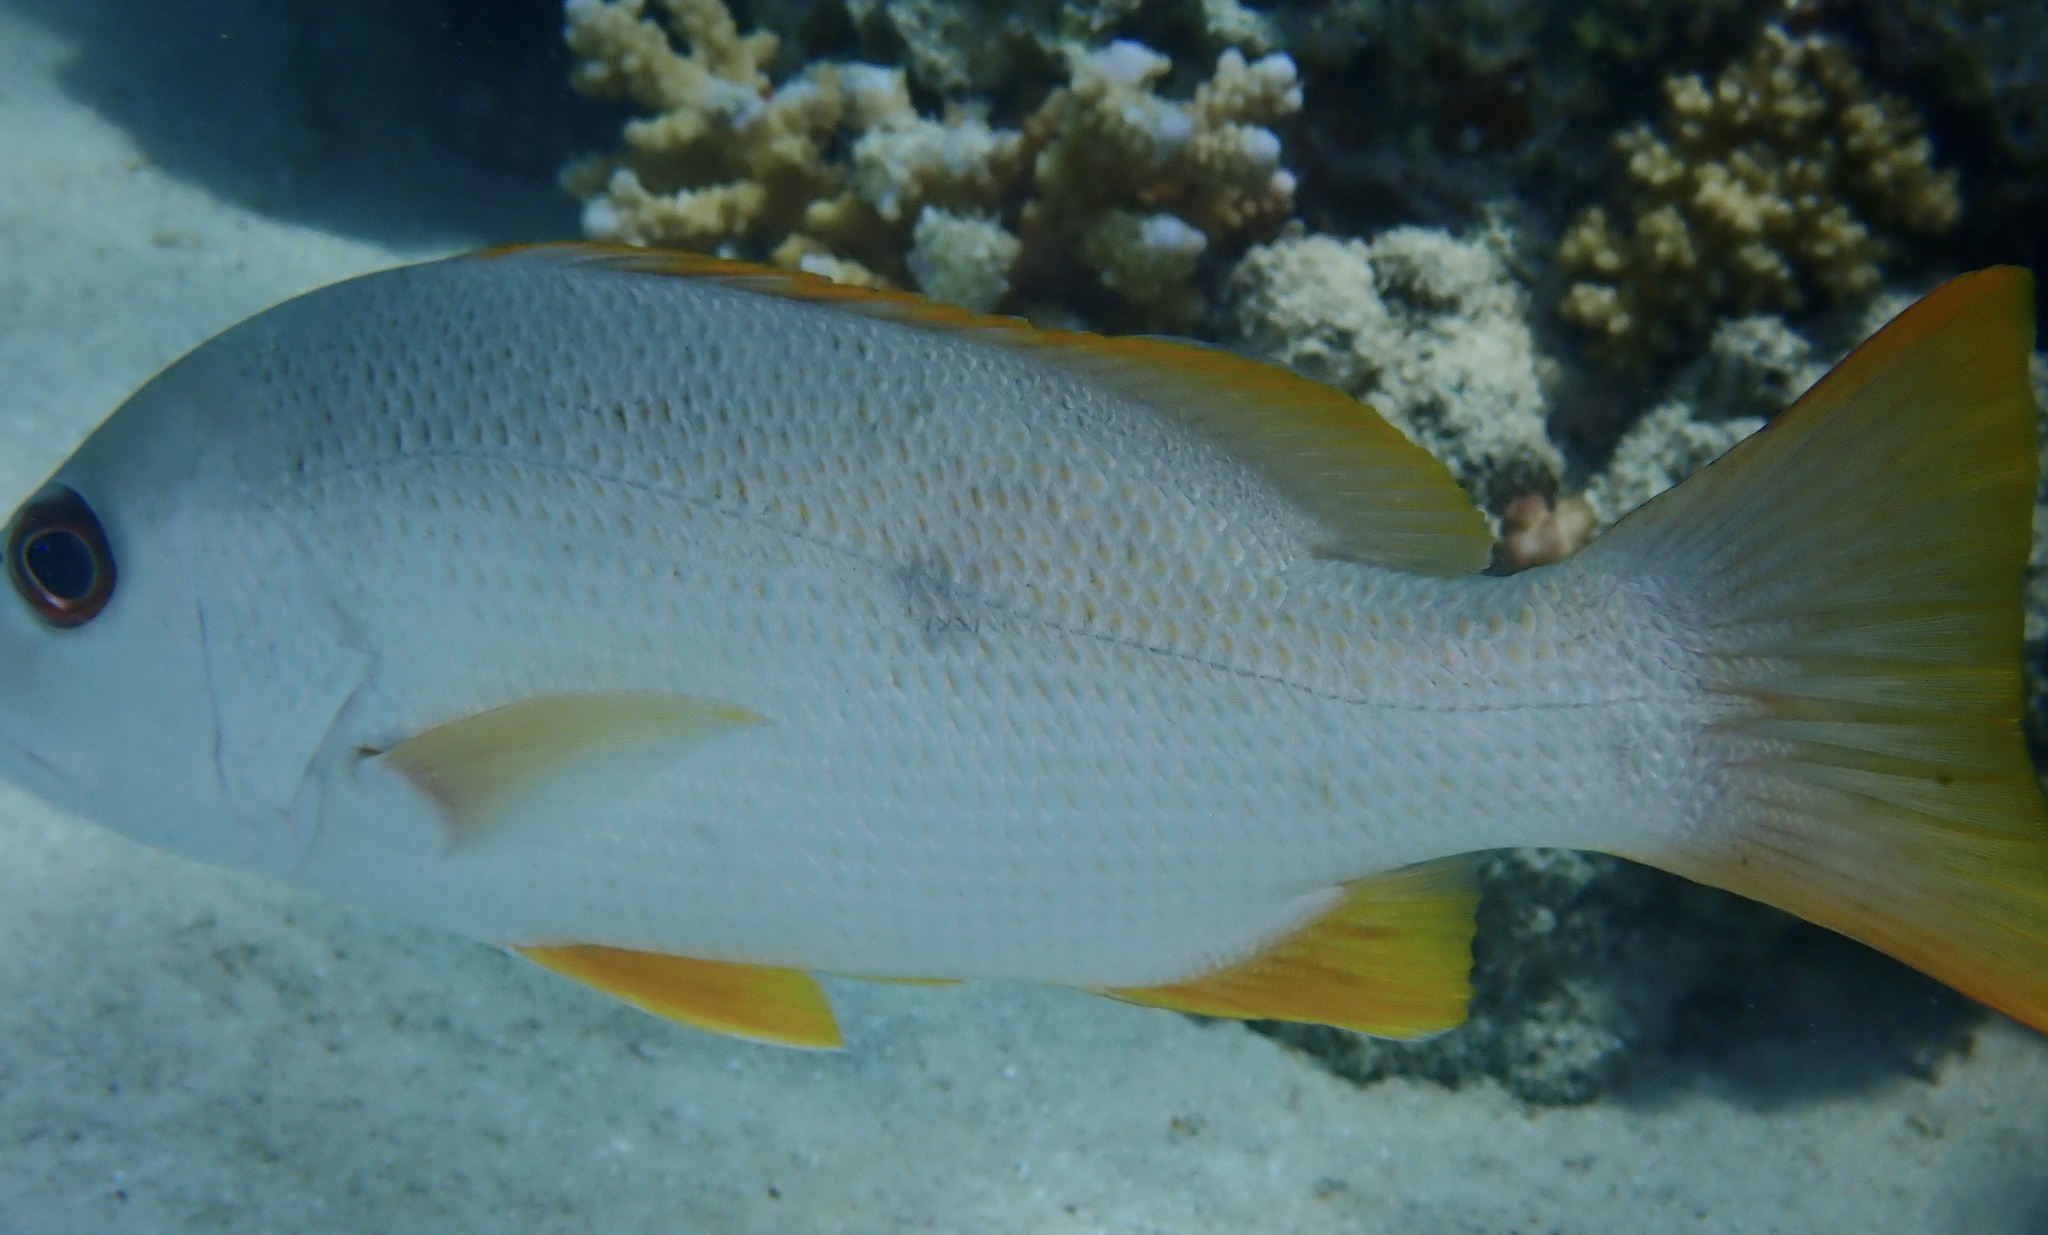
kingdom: Animalia
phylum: Chordata
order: Perciformes
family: Lutjanidae
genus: Lutjanus
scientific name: Lutjanus monostigma
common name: Onespot snapper
